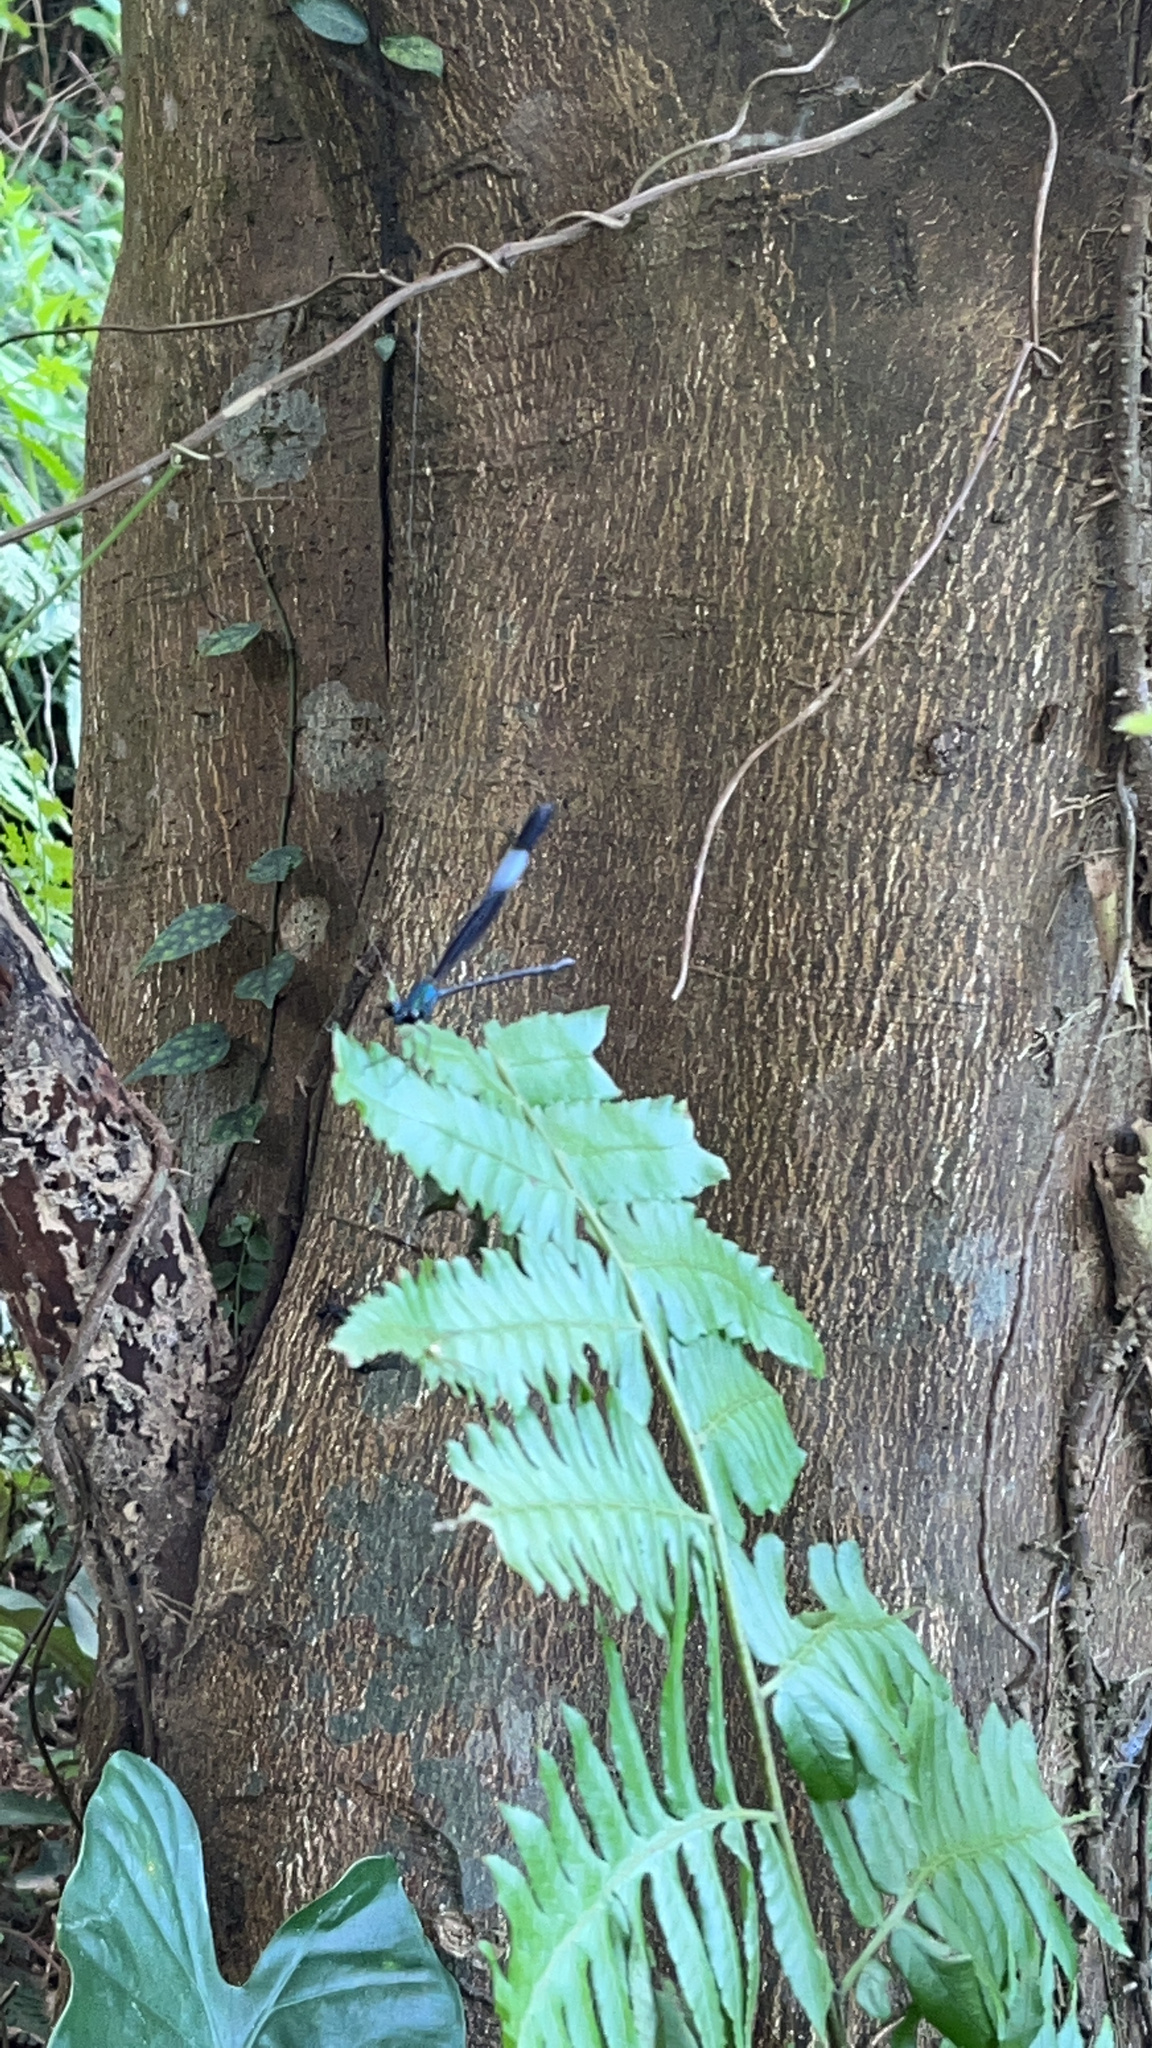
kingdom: Animalia
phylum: Arthropoda
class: Insecta
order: Odonata
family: Calopterygidae
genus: Psolodesmus
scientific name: Psolodesmus mandarinus
